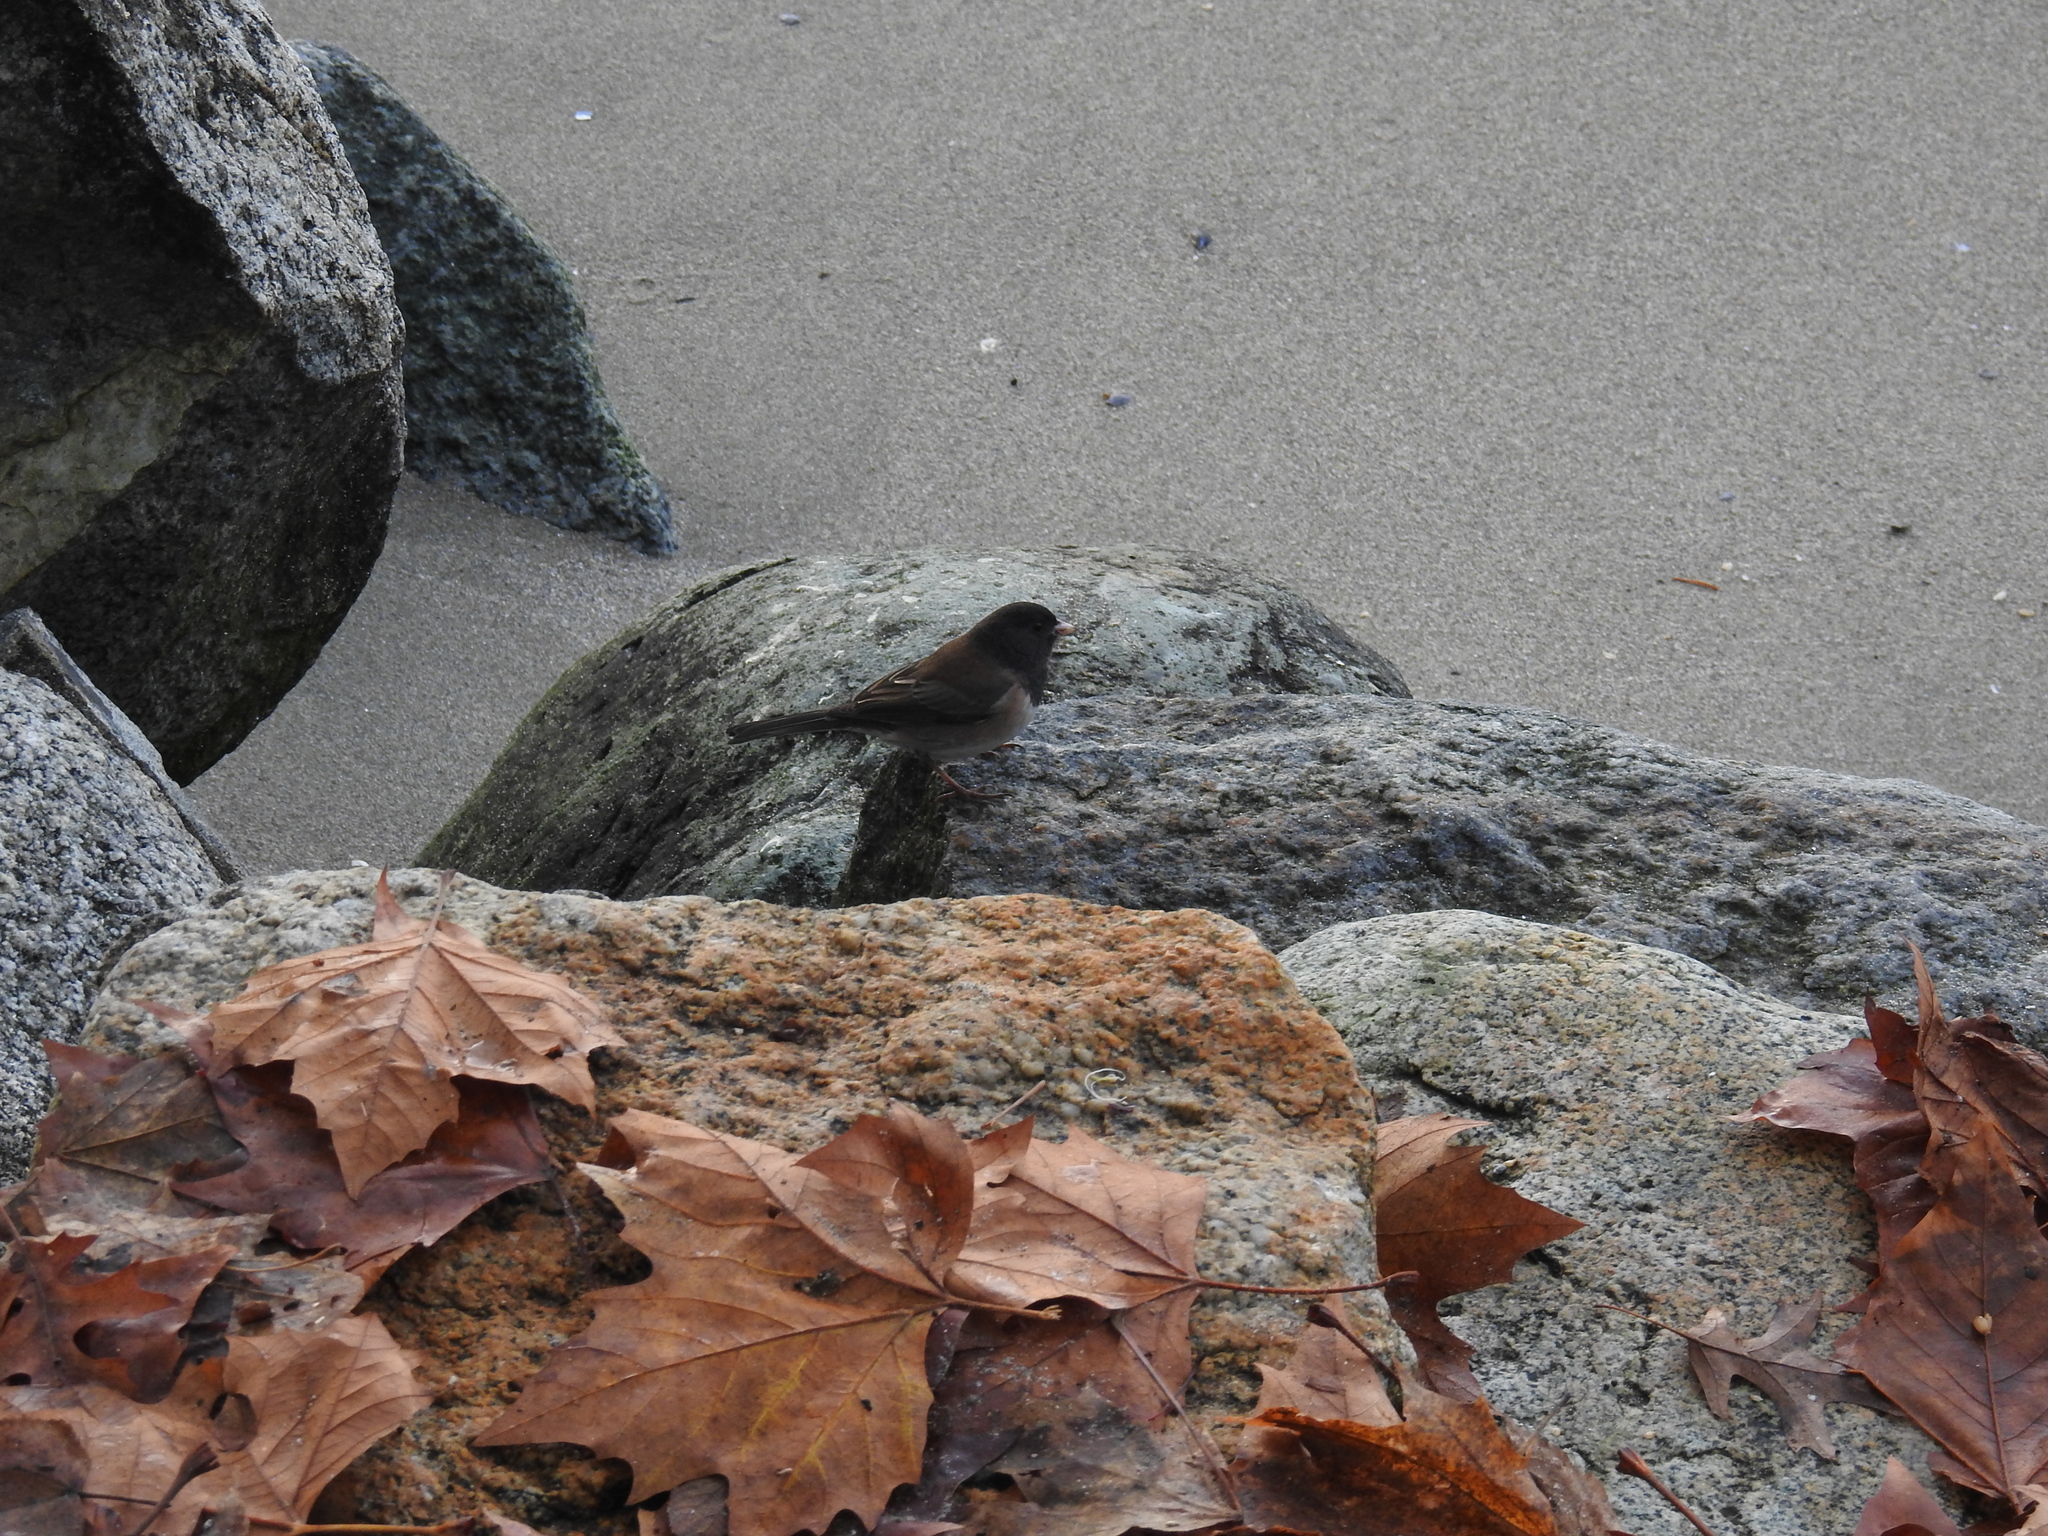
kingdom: Animalia
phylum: Chordata
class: Aves
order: Passeriformes
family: Passerellidae
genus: Junco
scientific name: Junco hyemalis
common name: Dark-eyed junco
